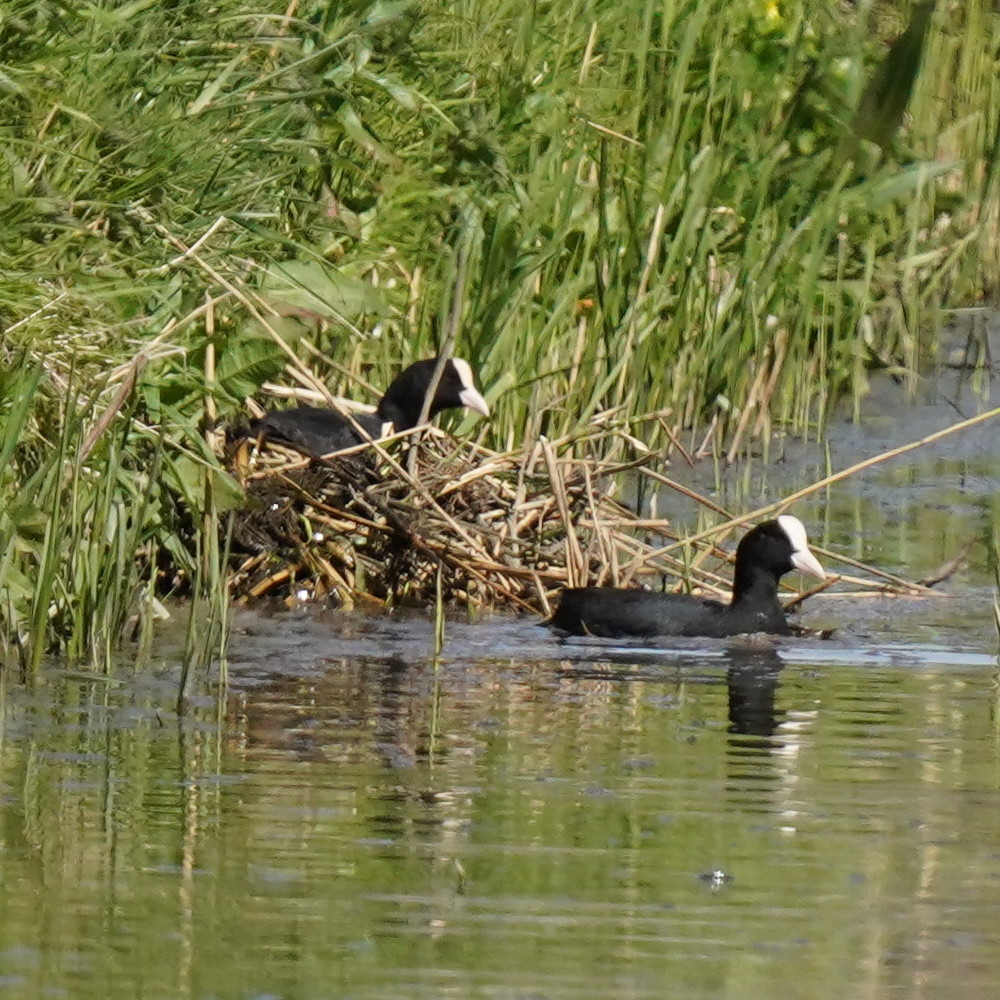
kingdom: Animalia
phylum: Chordata
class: Aves
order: Gruiformes
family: Rallidae
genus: Fulica
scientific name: Fulica atra
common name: Eurasian coot
